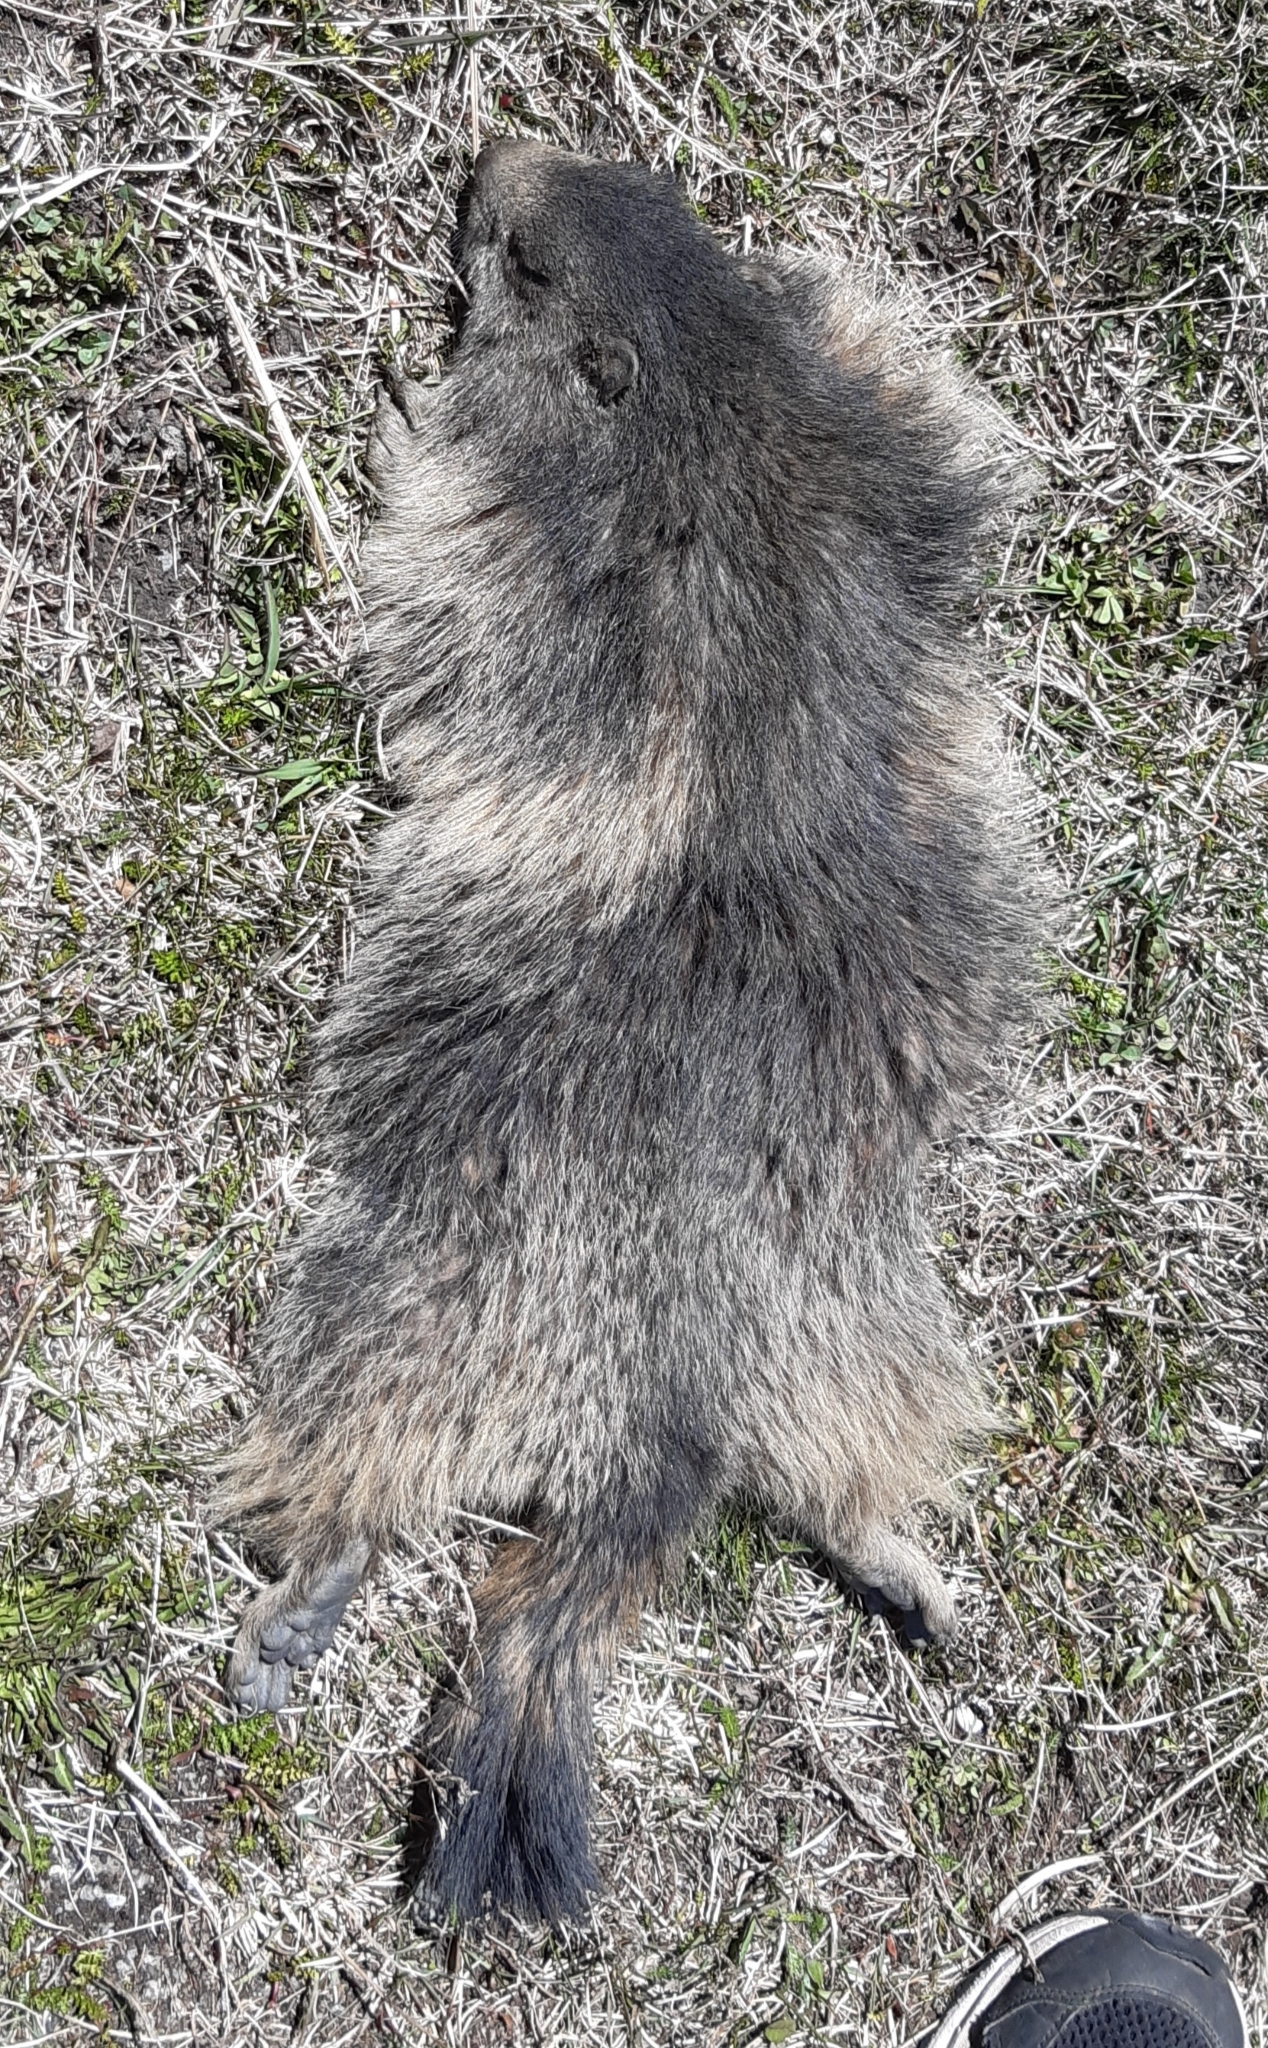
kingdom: Animalia
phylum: Chordata
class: Mammalia
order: Rodentia
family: Sciuridae
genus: Marmota
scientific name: Marmota marmota
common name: Alpine marmot
